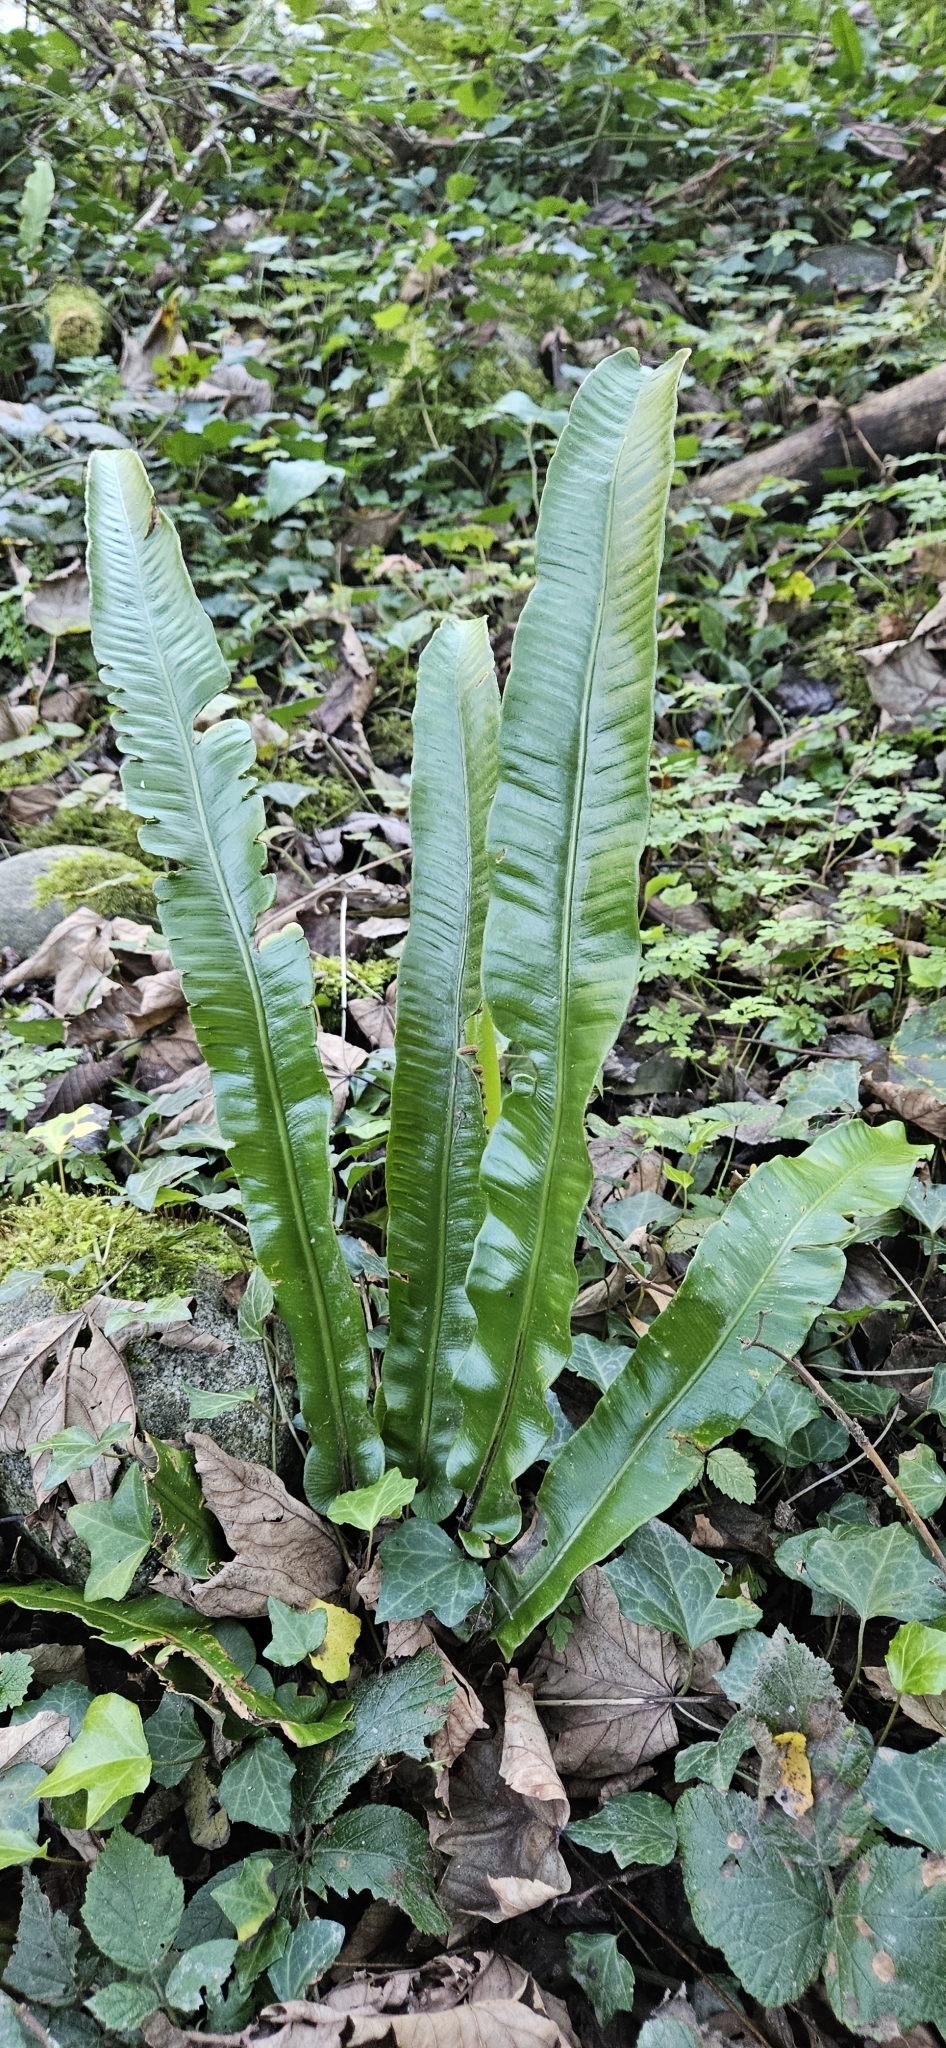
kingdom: Plantae
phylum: Tracheophyta
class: Polypodiopsida
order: Polypodiales
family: Aspleniaceae
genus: Asplenium
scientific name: Asplenium scolopendrium
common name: Hart's-tongue fern
